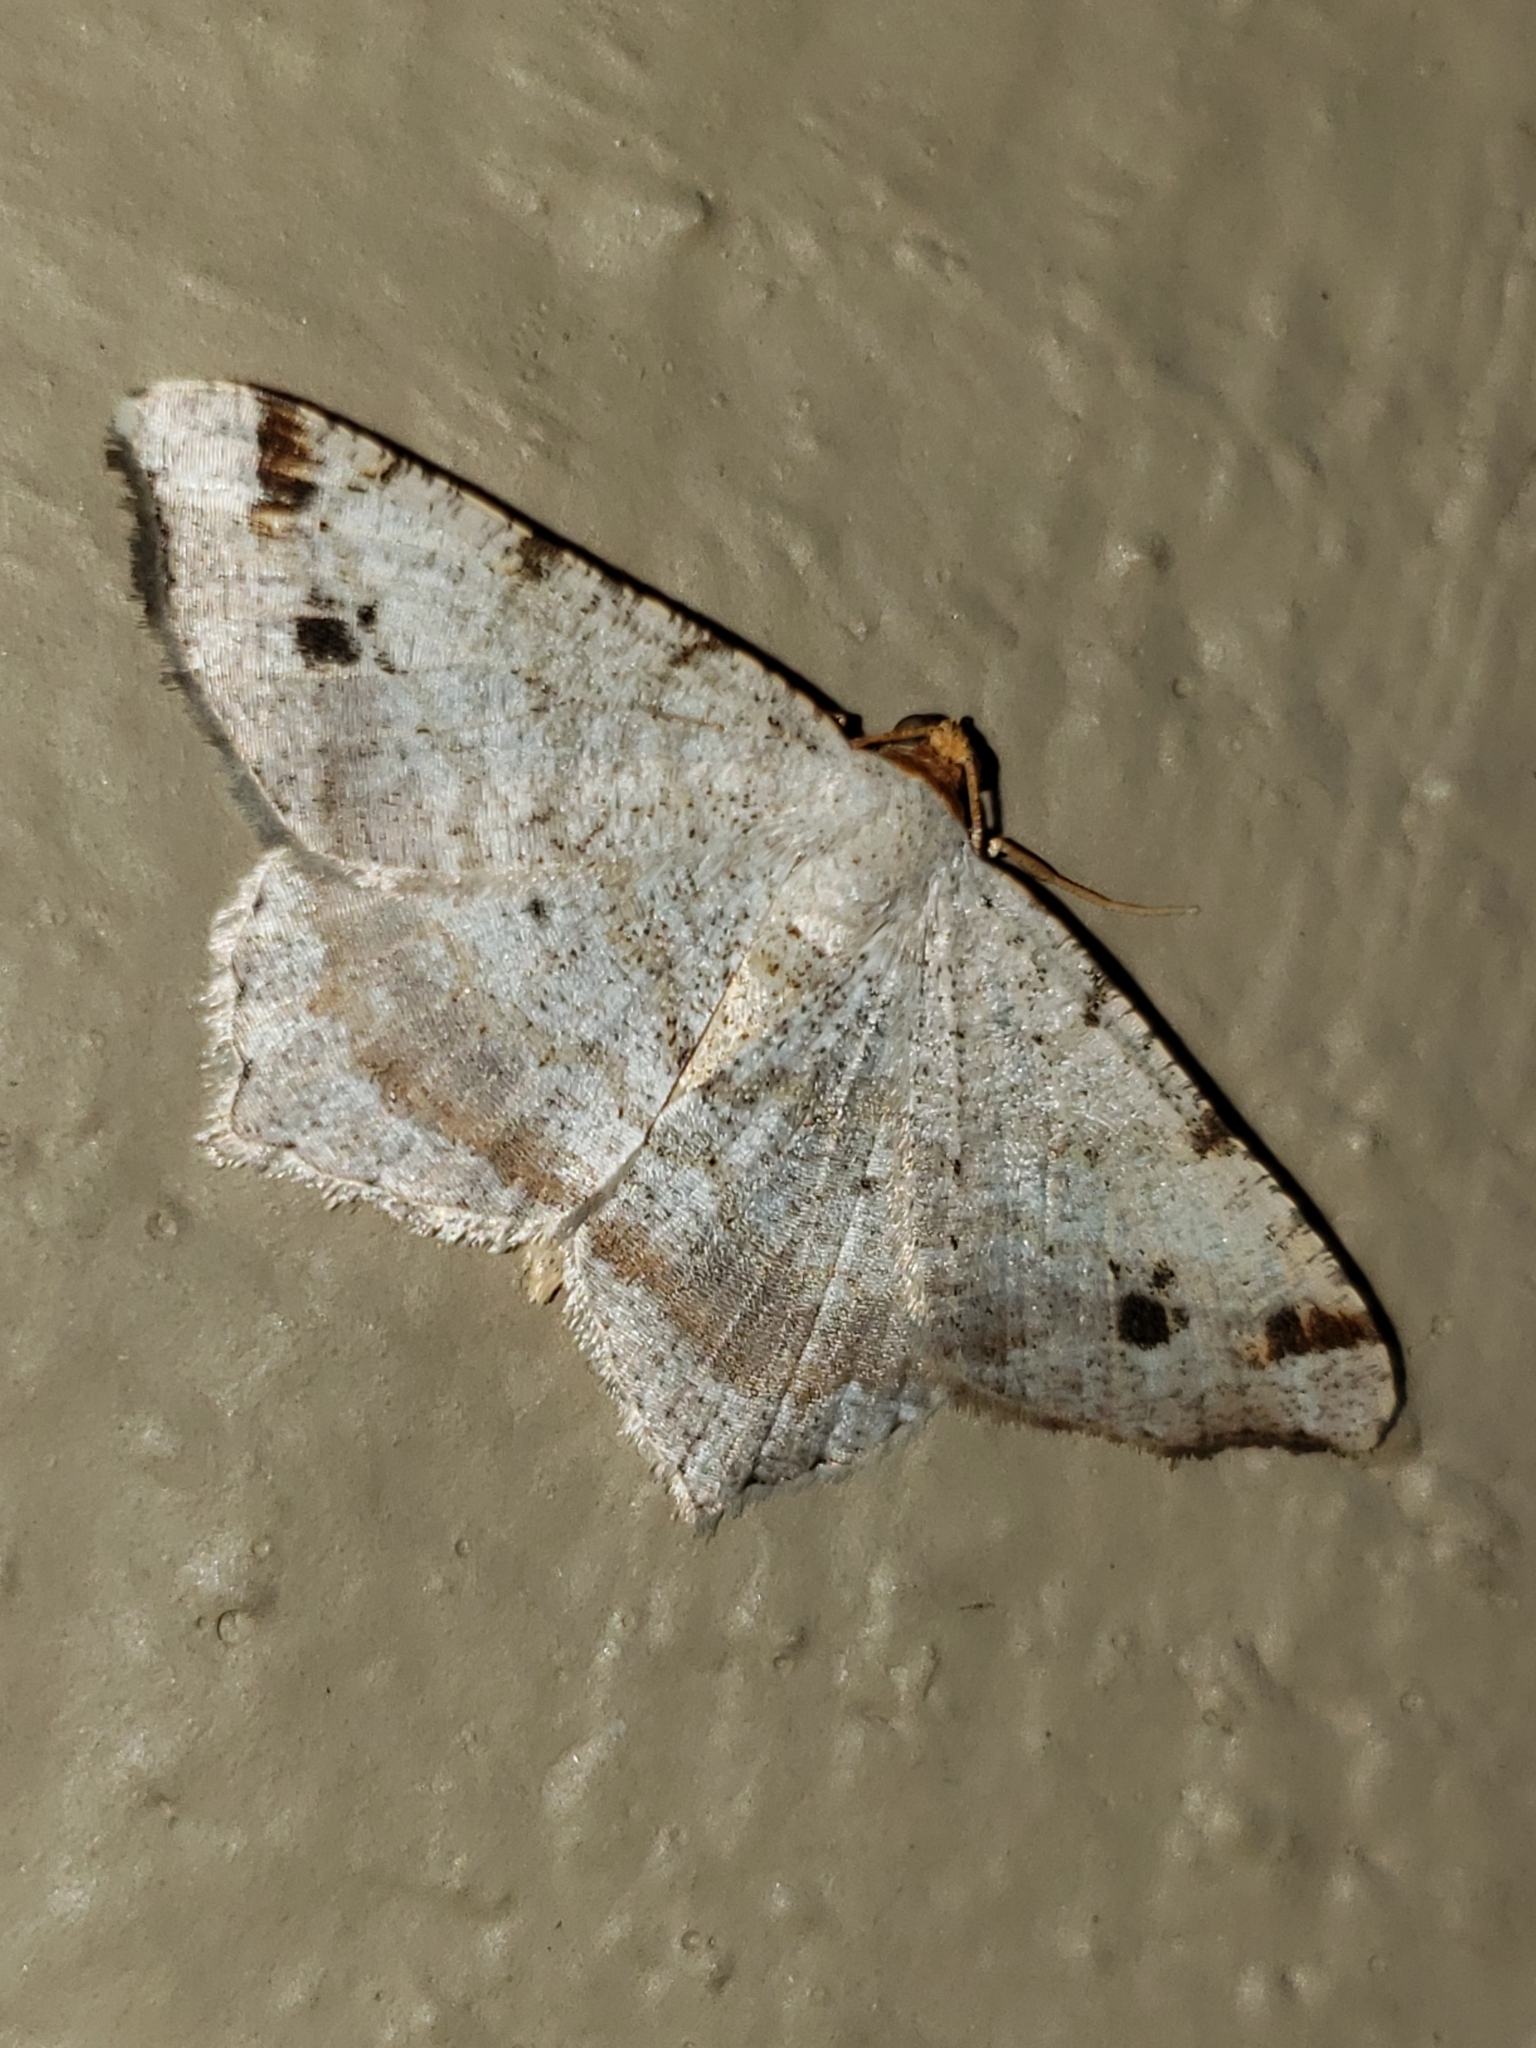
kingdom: Animalia
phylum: Arthropoda
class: Insecta
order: Lepidoptera
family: Geometridae
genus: Macaria
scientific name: Macaria bisignata
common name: Red-headed inchworm
